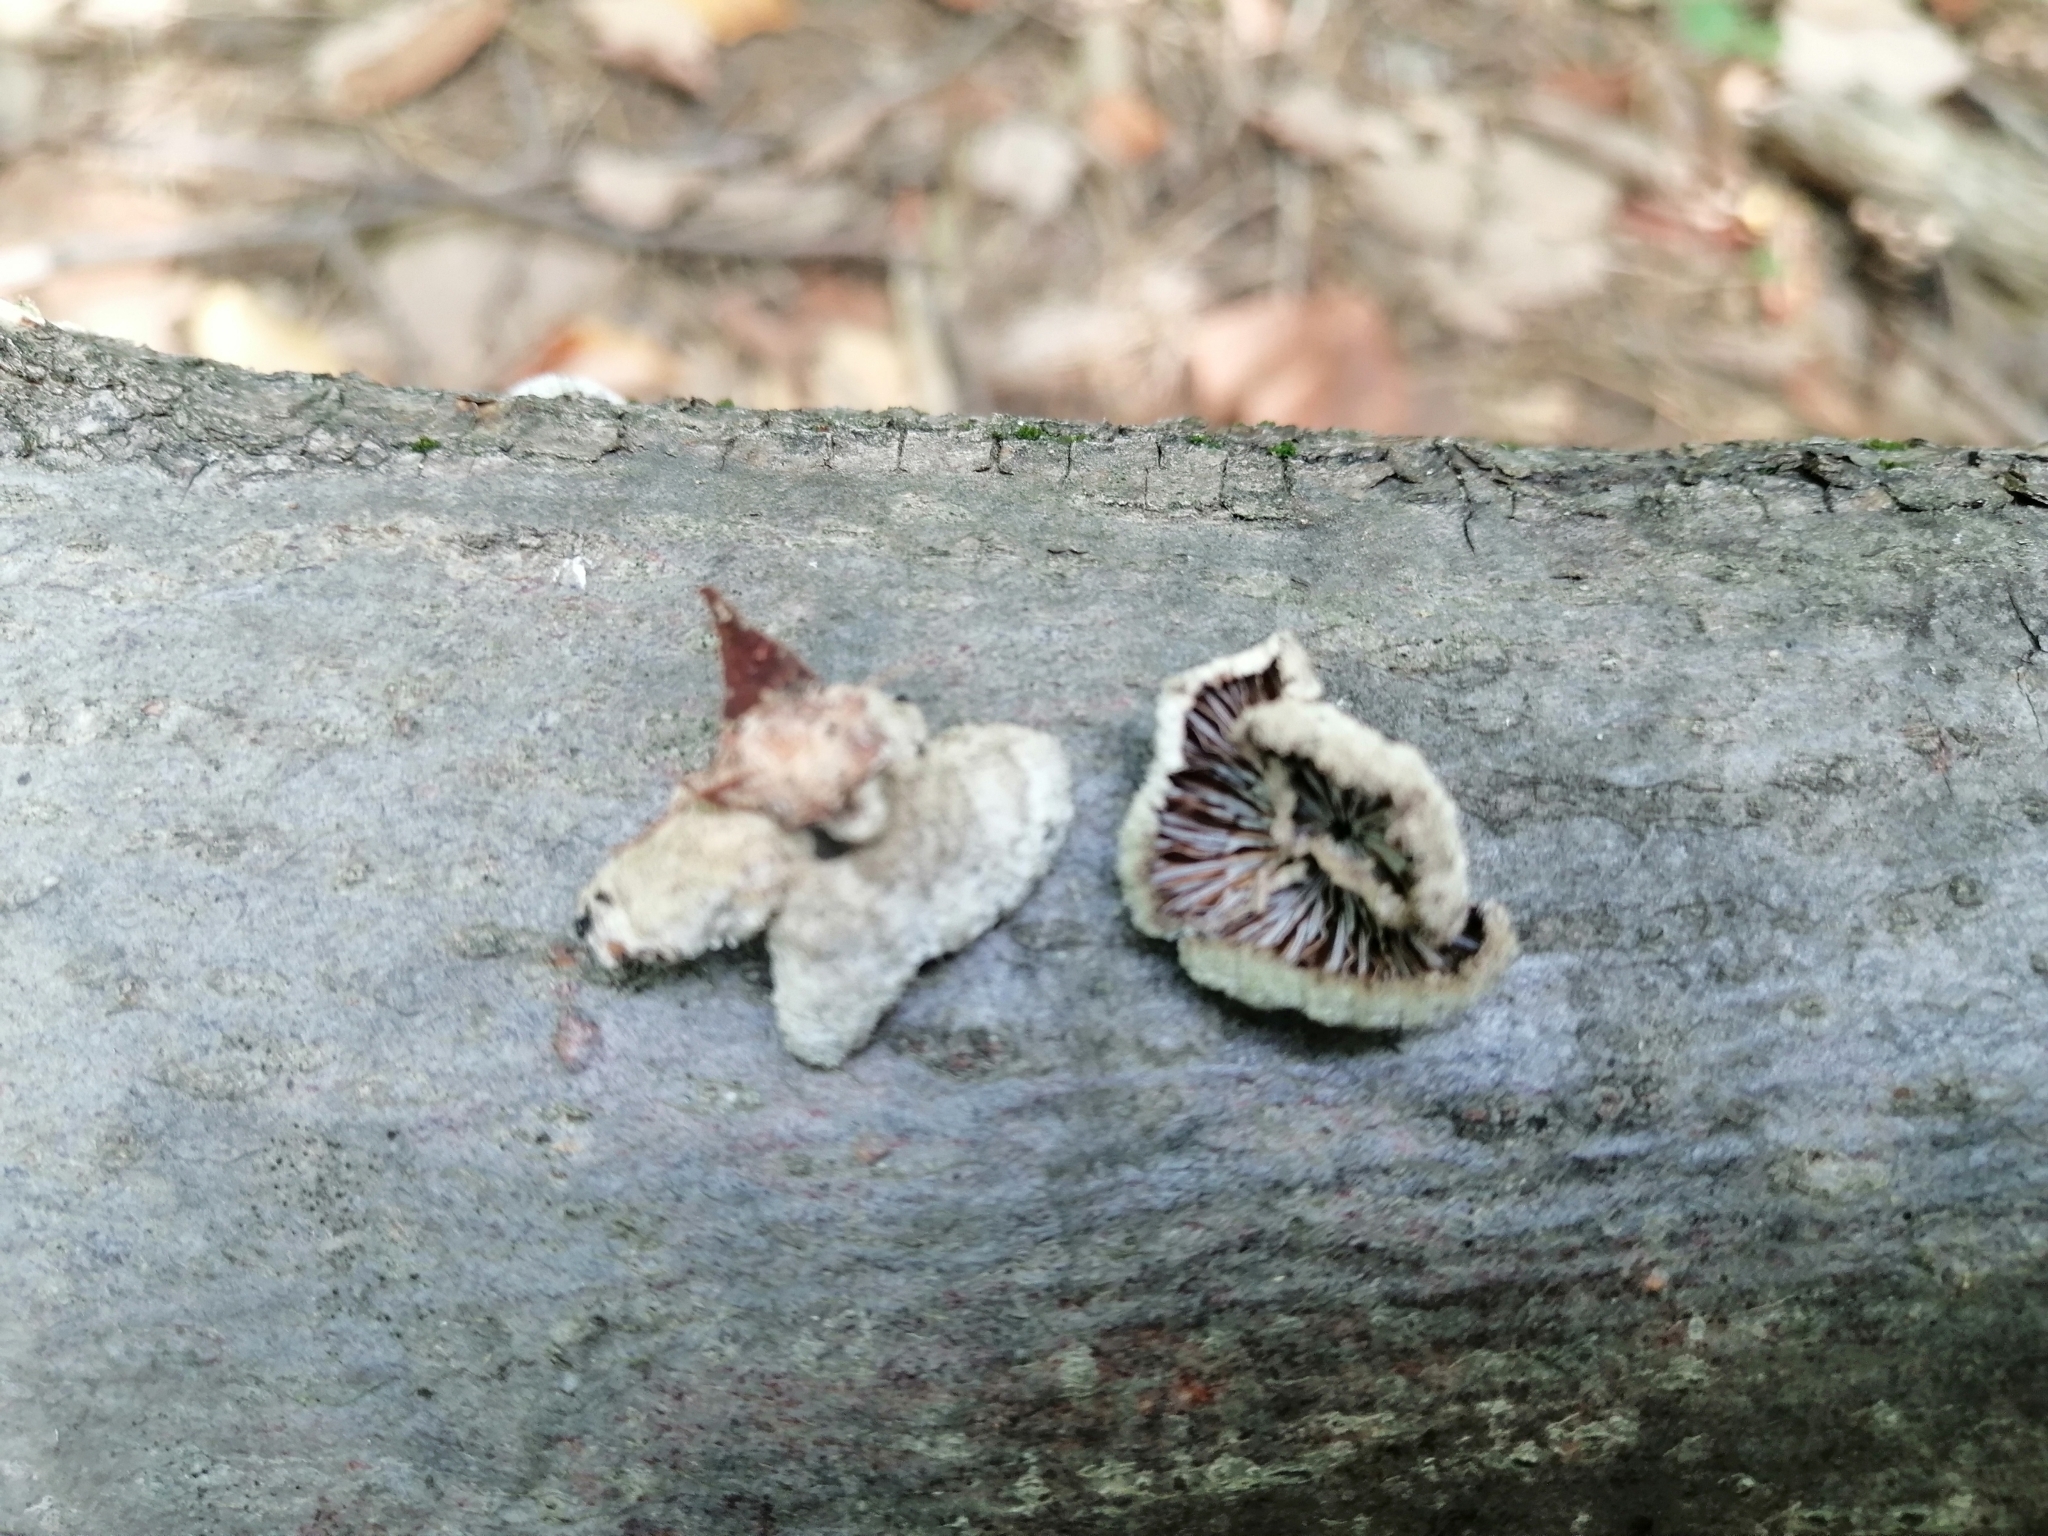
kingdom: Fungi
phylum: Basidiomycota
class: Agaricomycetes
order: Agaricales
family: Schizophyllaceae
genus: Schizophyllum
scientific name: Schizophyllum commune
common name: Common porecrust
